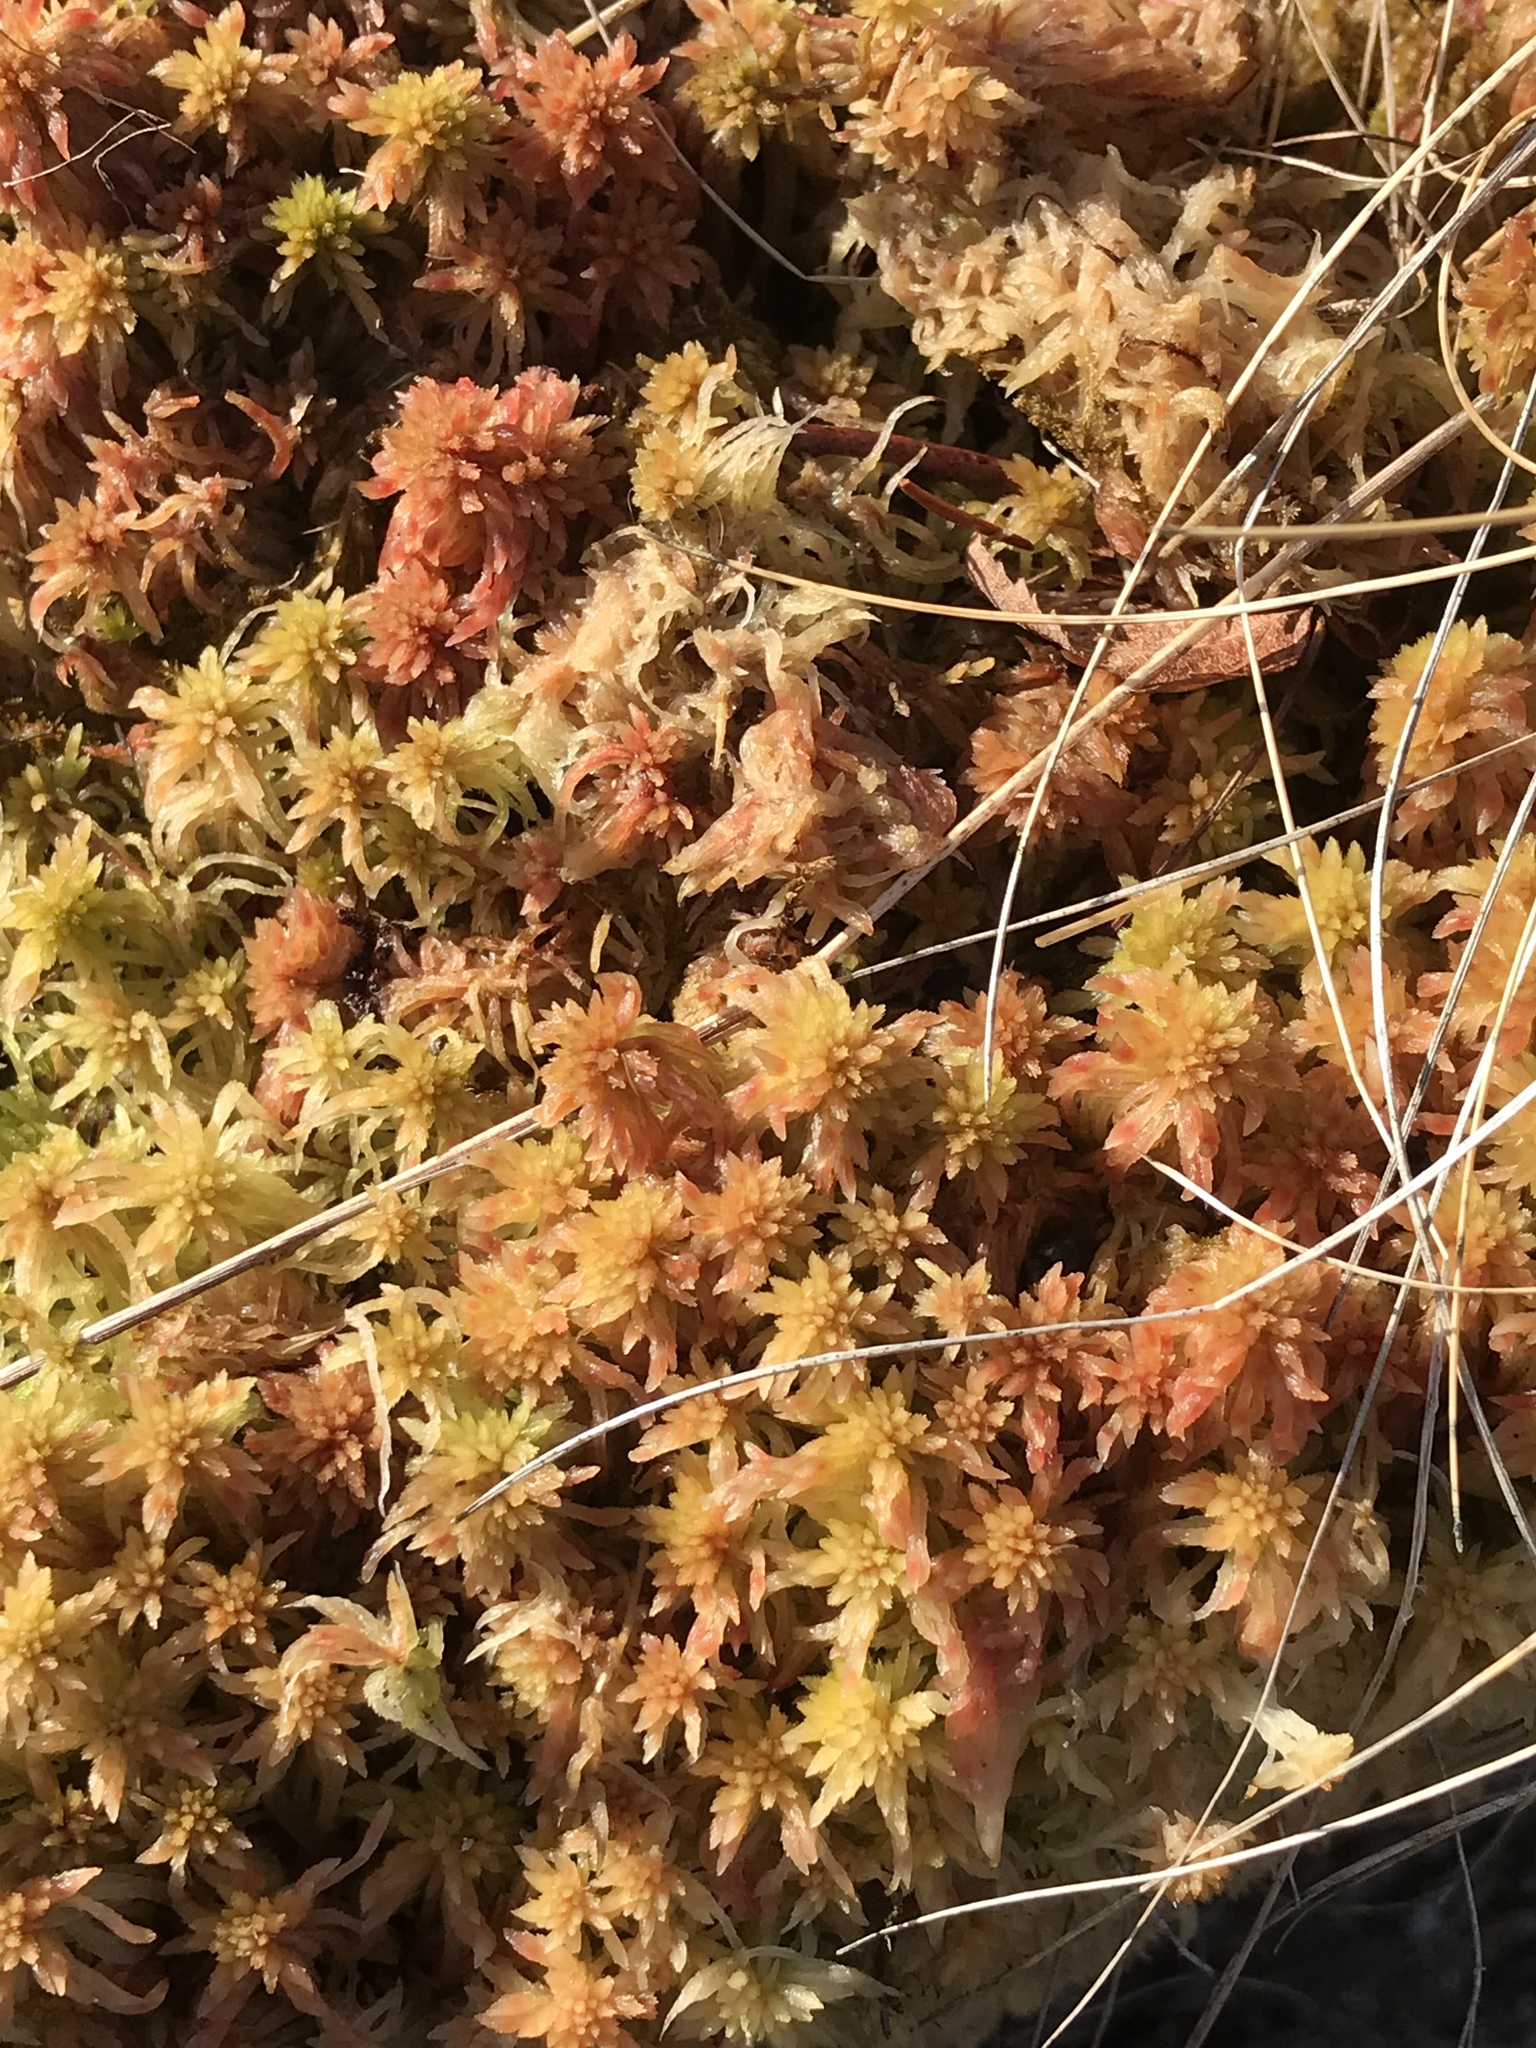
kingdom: Plantae
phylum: Bryophyta
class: Sphagnopsida
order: Sphagnales
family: Sphagnaceae
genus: Sphagnum
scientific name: Sphagnum
